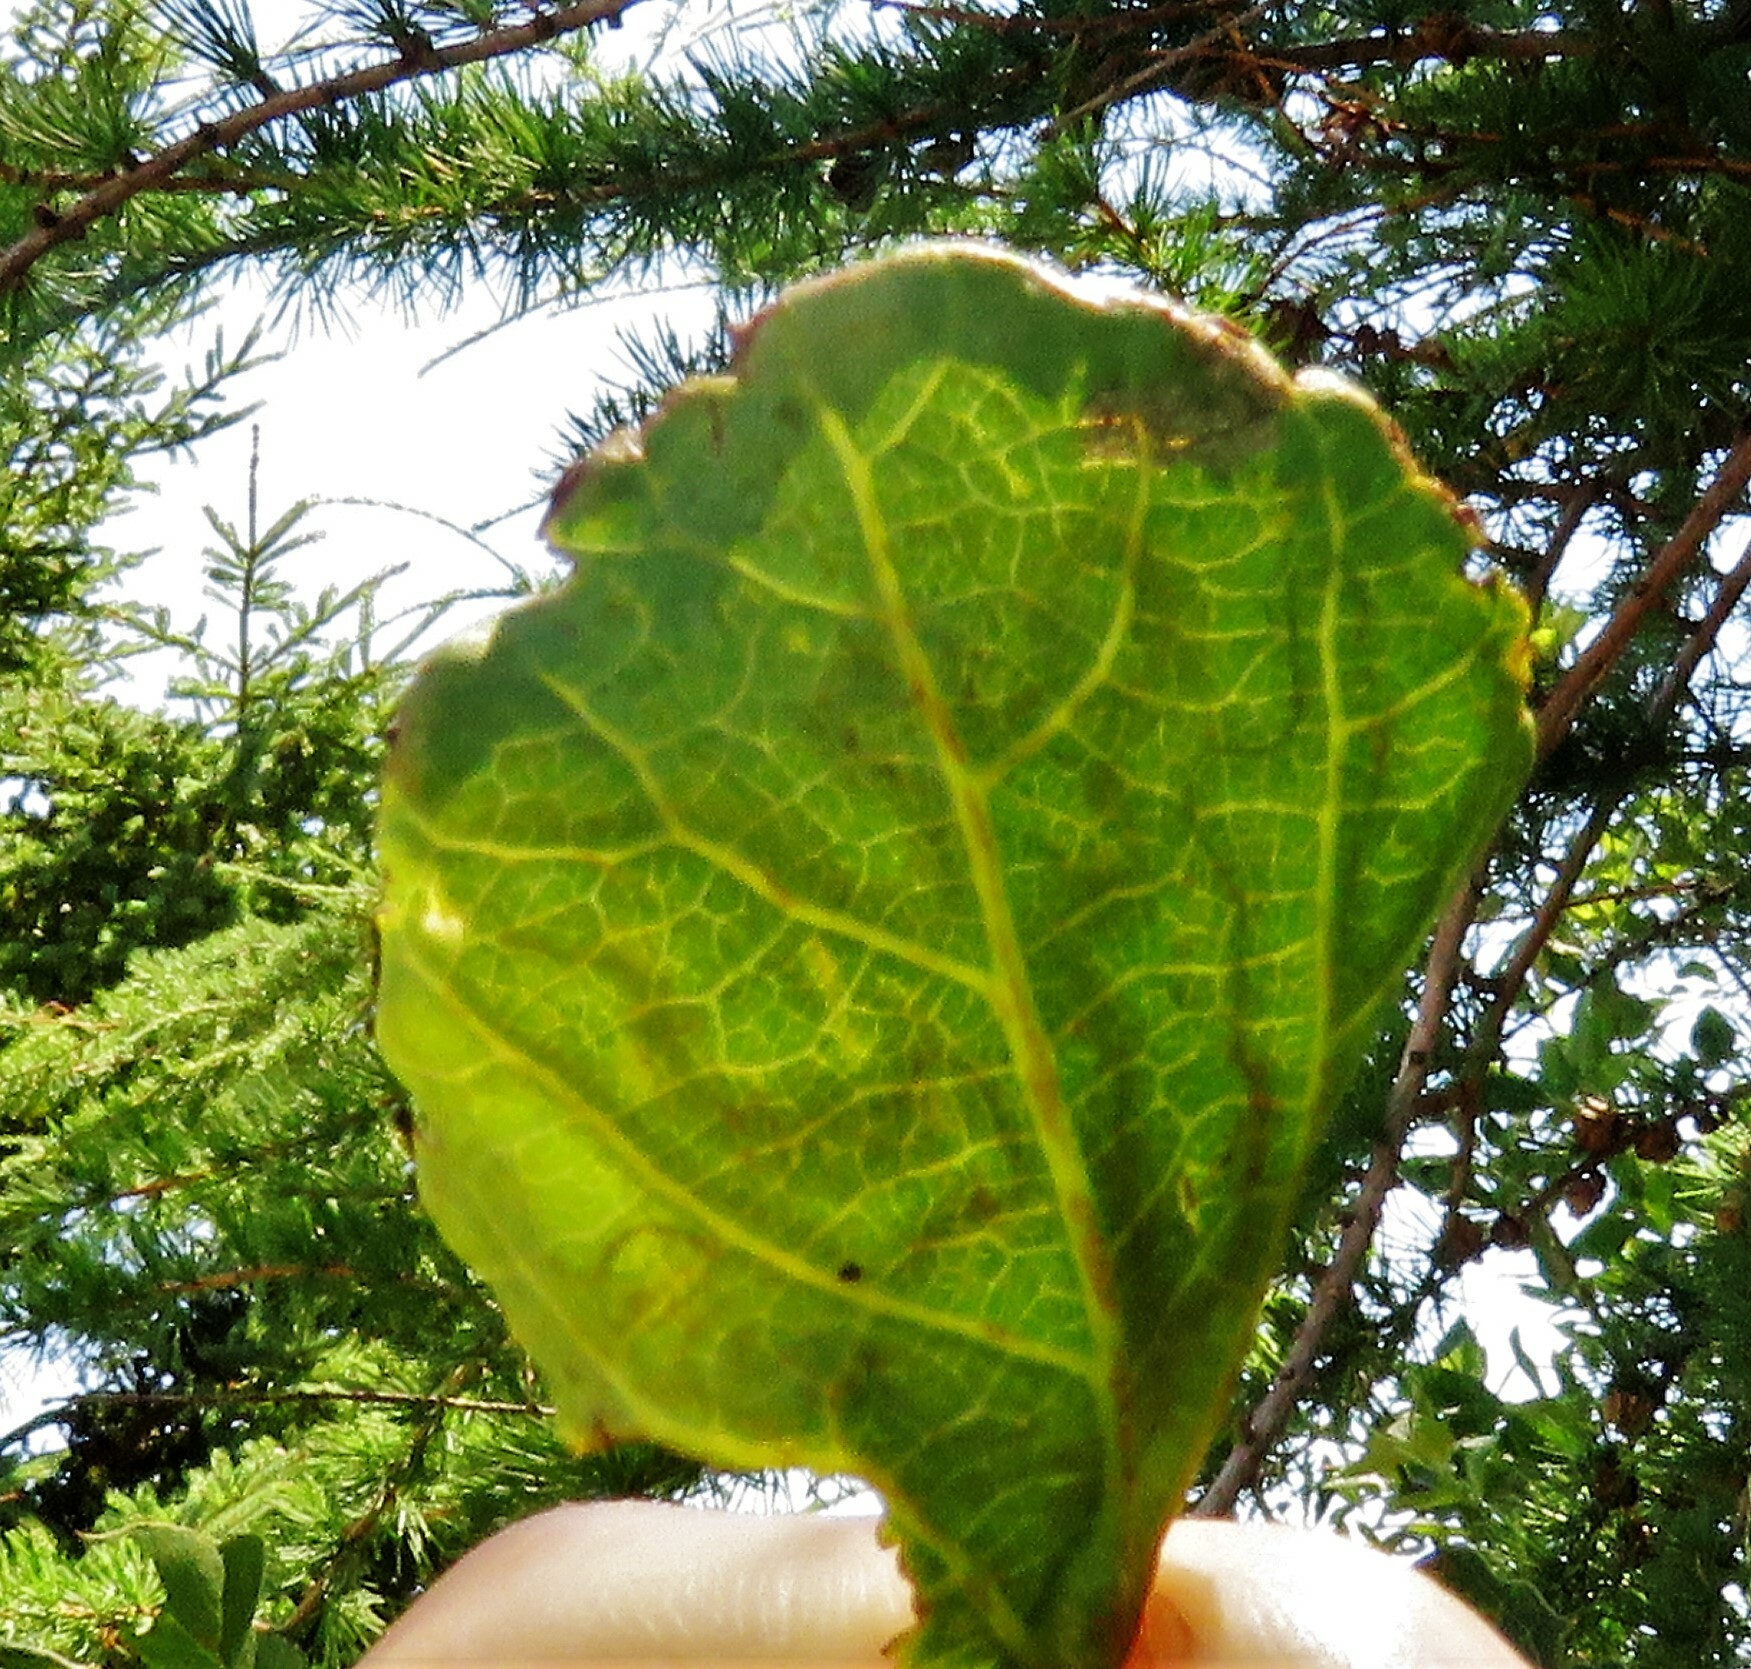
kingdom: Animalia
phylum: Arthropoda
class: Insecta
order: Lepidoptera
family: Gracillariidae
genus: Phyllocnistis
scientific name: Phyllocnistis populiella
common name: Aspen serpentine leafminer moth
